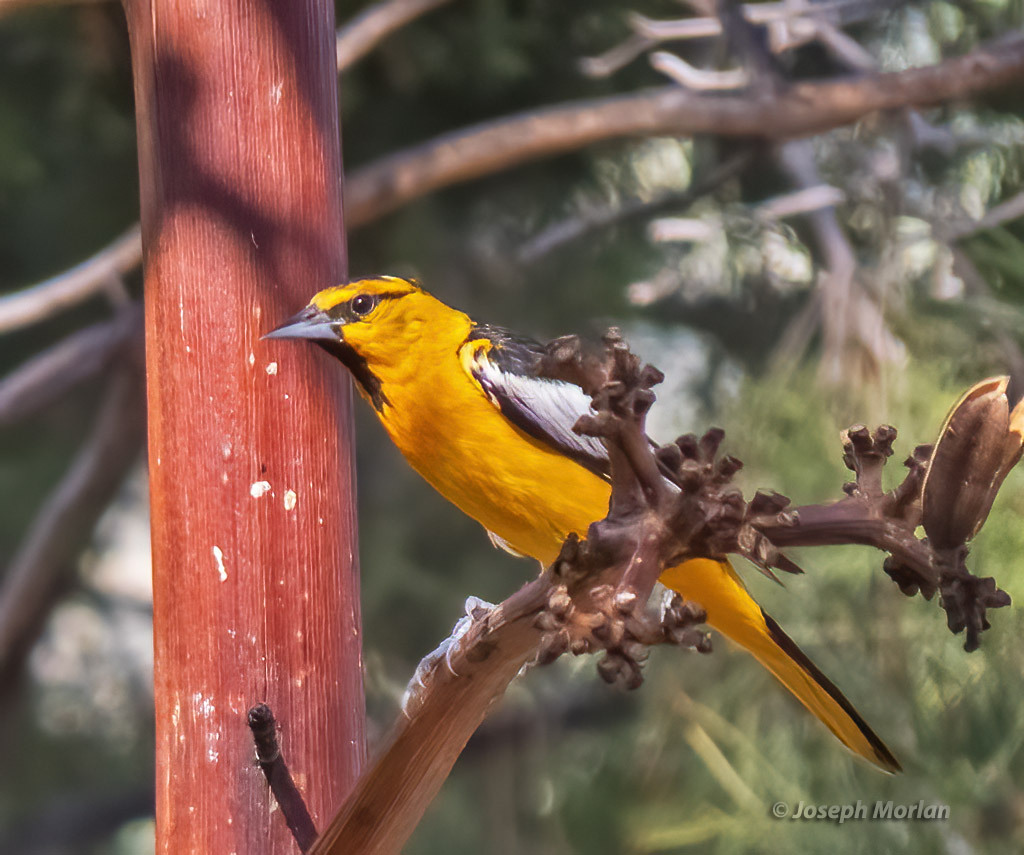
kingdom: Animalia
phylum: Chordata
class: Aves
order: Passeriformes
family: Icteridae
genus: Icterus
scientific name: Icterus bullockii
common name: Bullock's oriole
